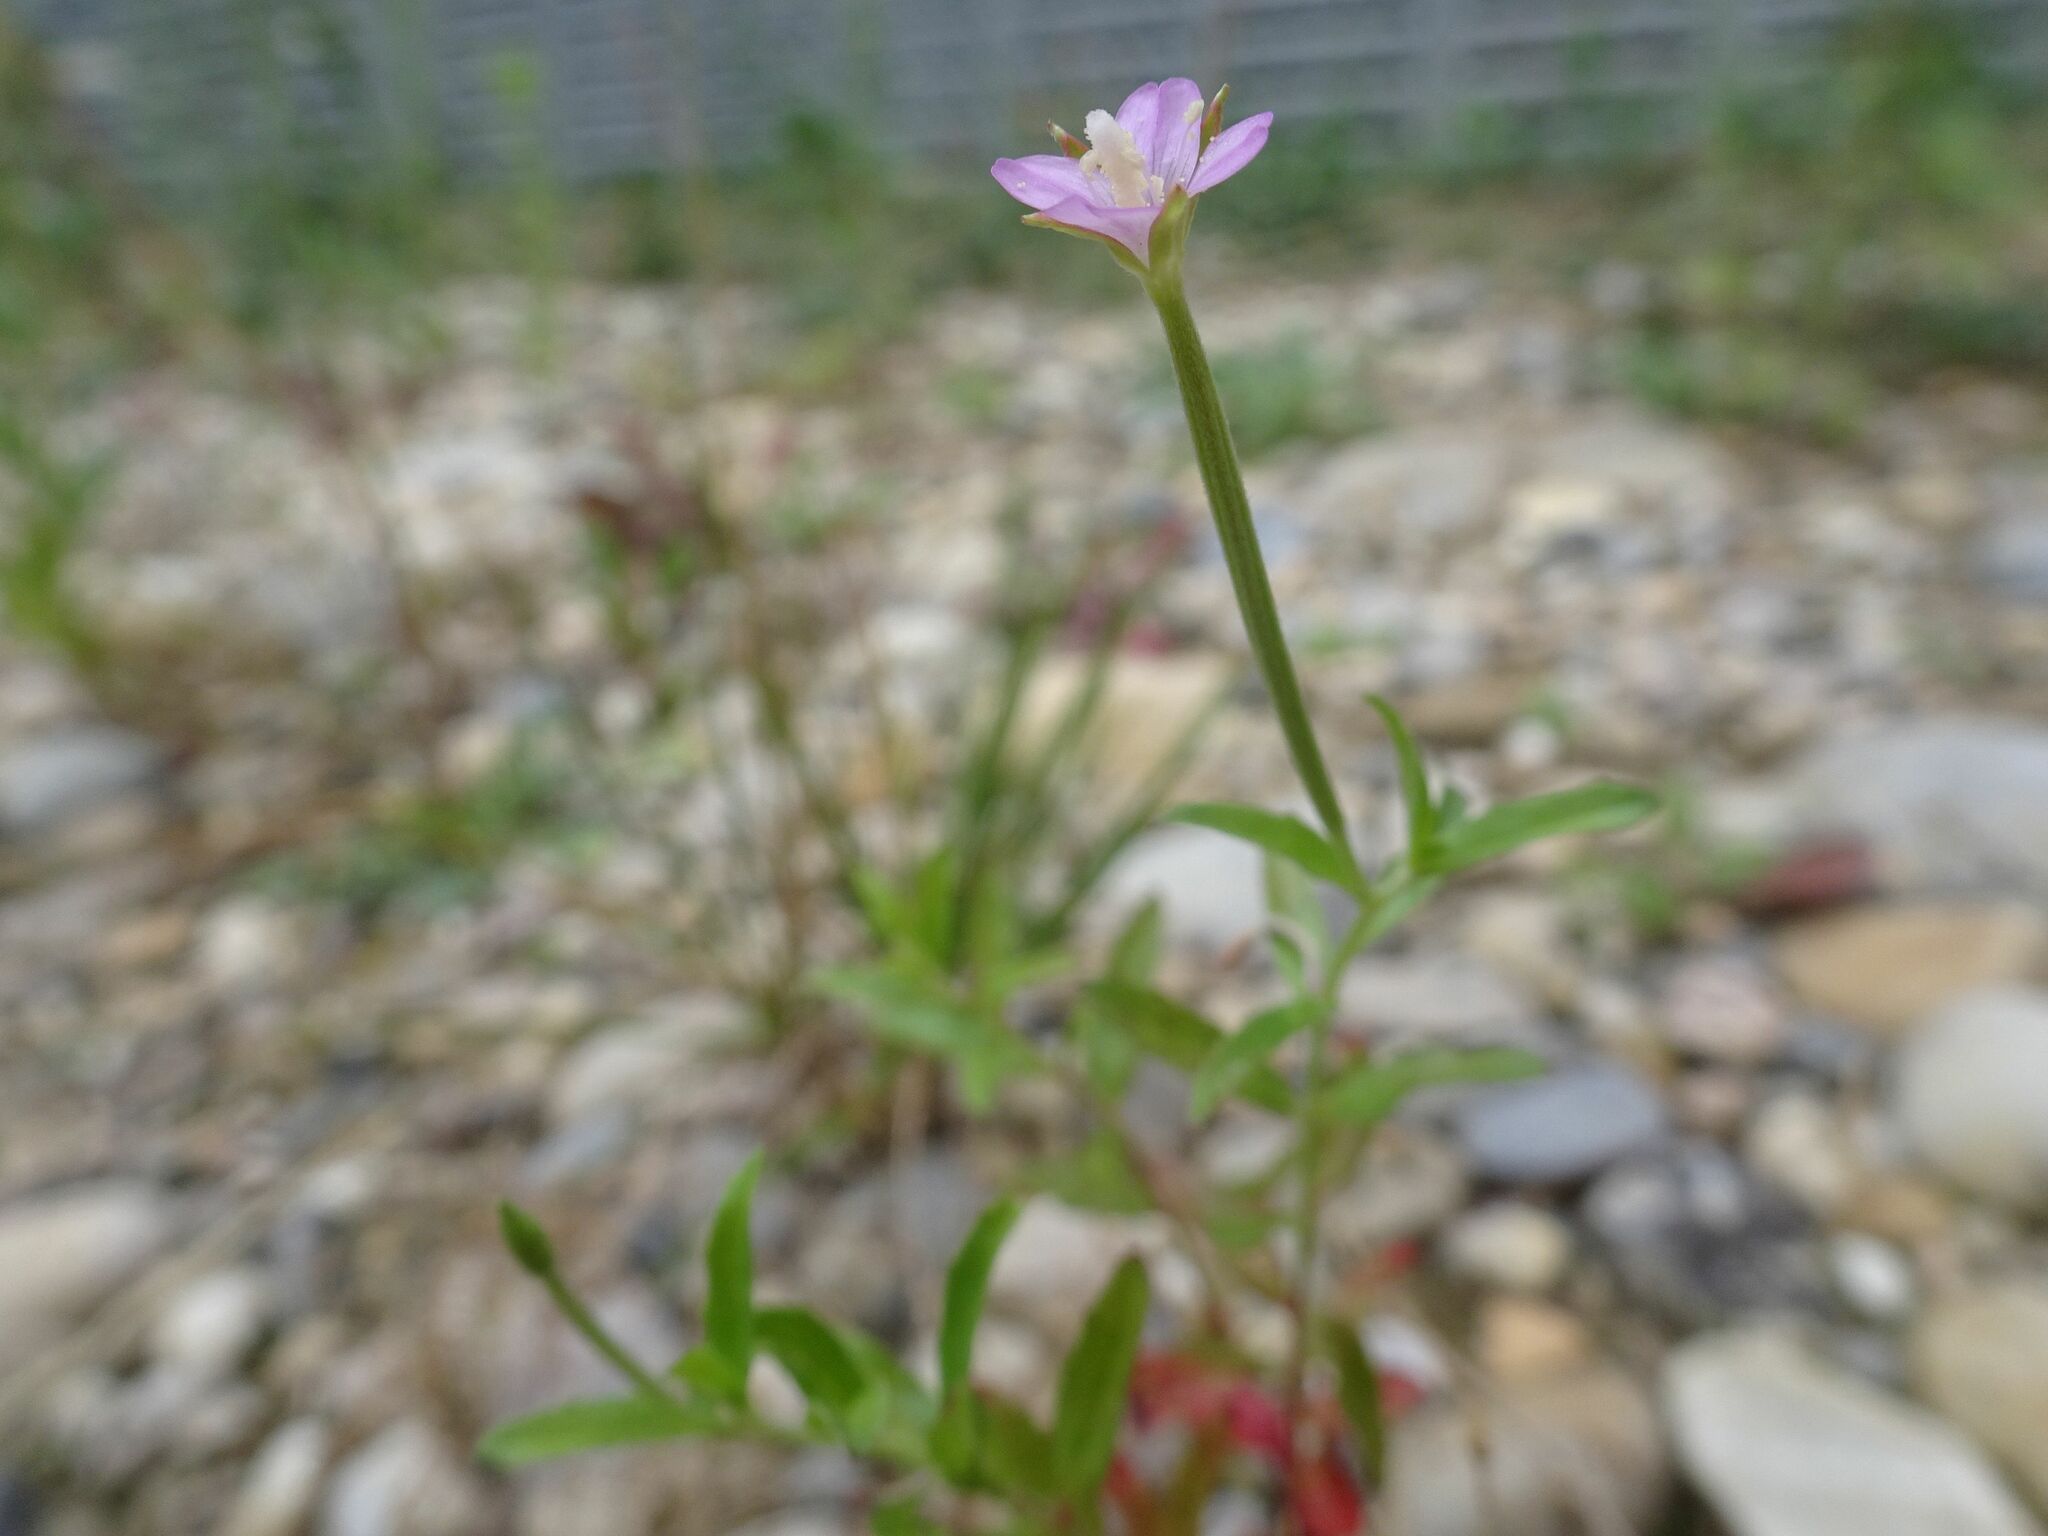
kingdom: Plantae
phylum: Tracheophyta
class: Magnoliopsida
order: Myrtales
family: Onagraceae
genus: Epilobium
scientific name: Epilobium tetragonum
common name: Square-stemmed willowherb
